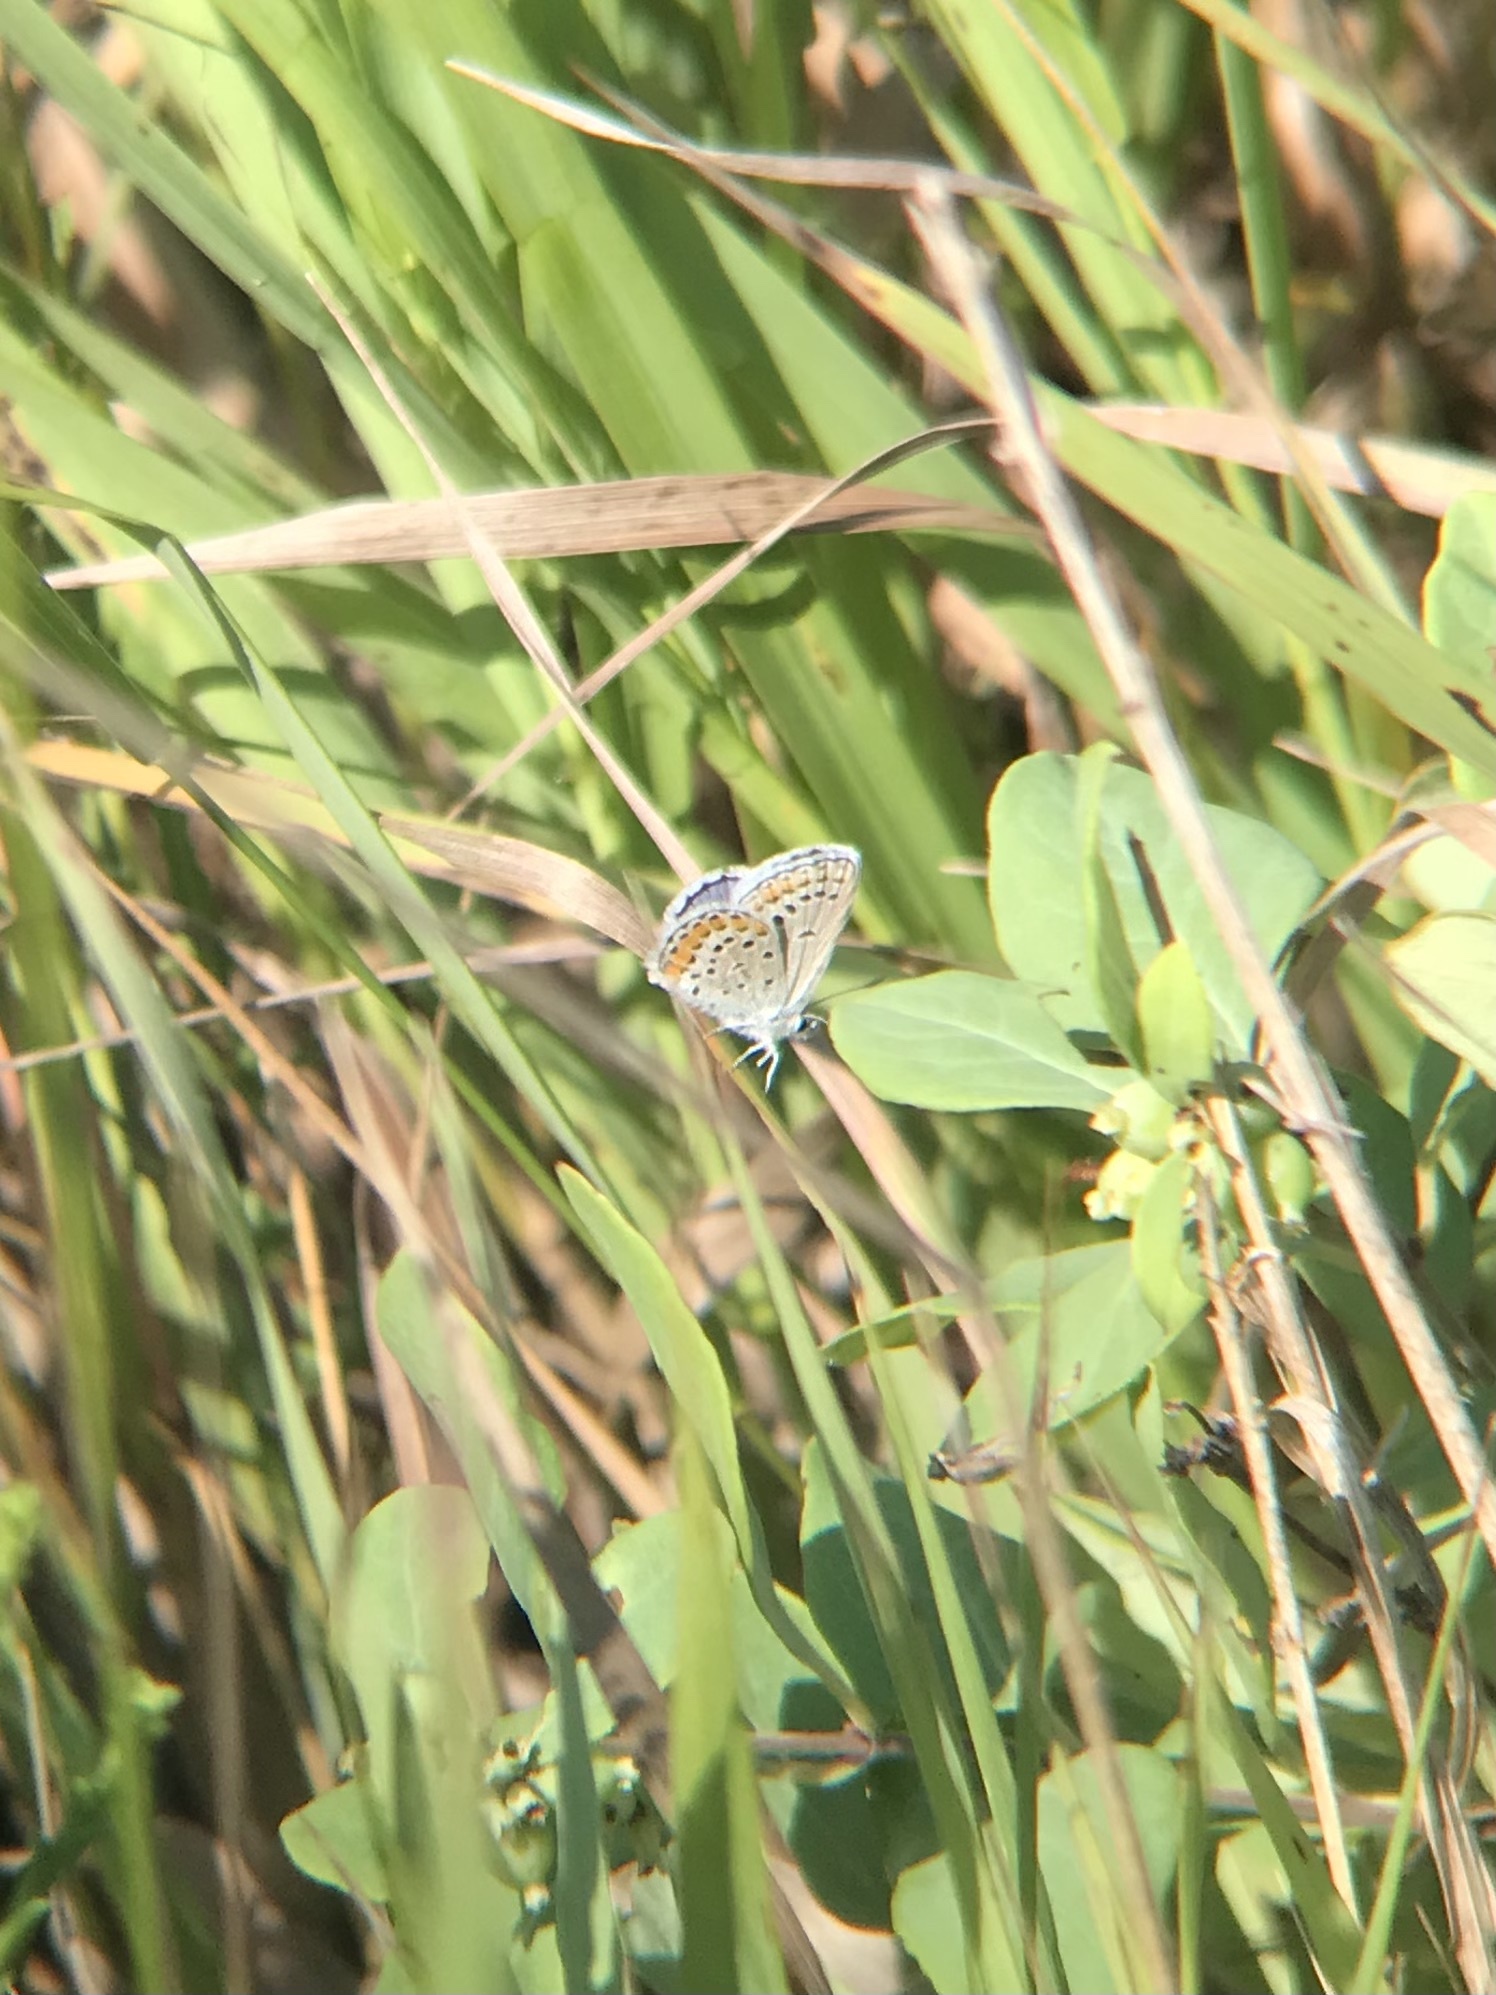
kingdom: Animalia
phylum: Arthropoda
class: Insecta
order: Lepidoptera
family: Lycaenidae
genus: Lycaeides
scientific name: Lycaeides melissa
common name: Melissa blue
